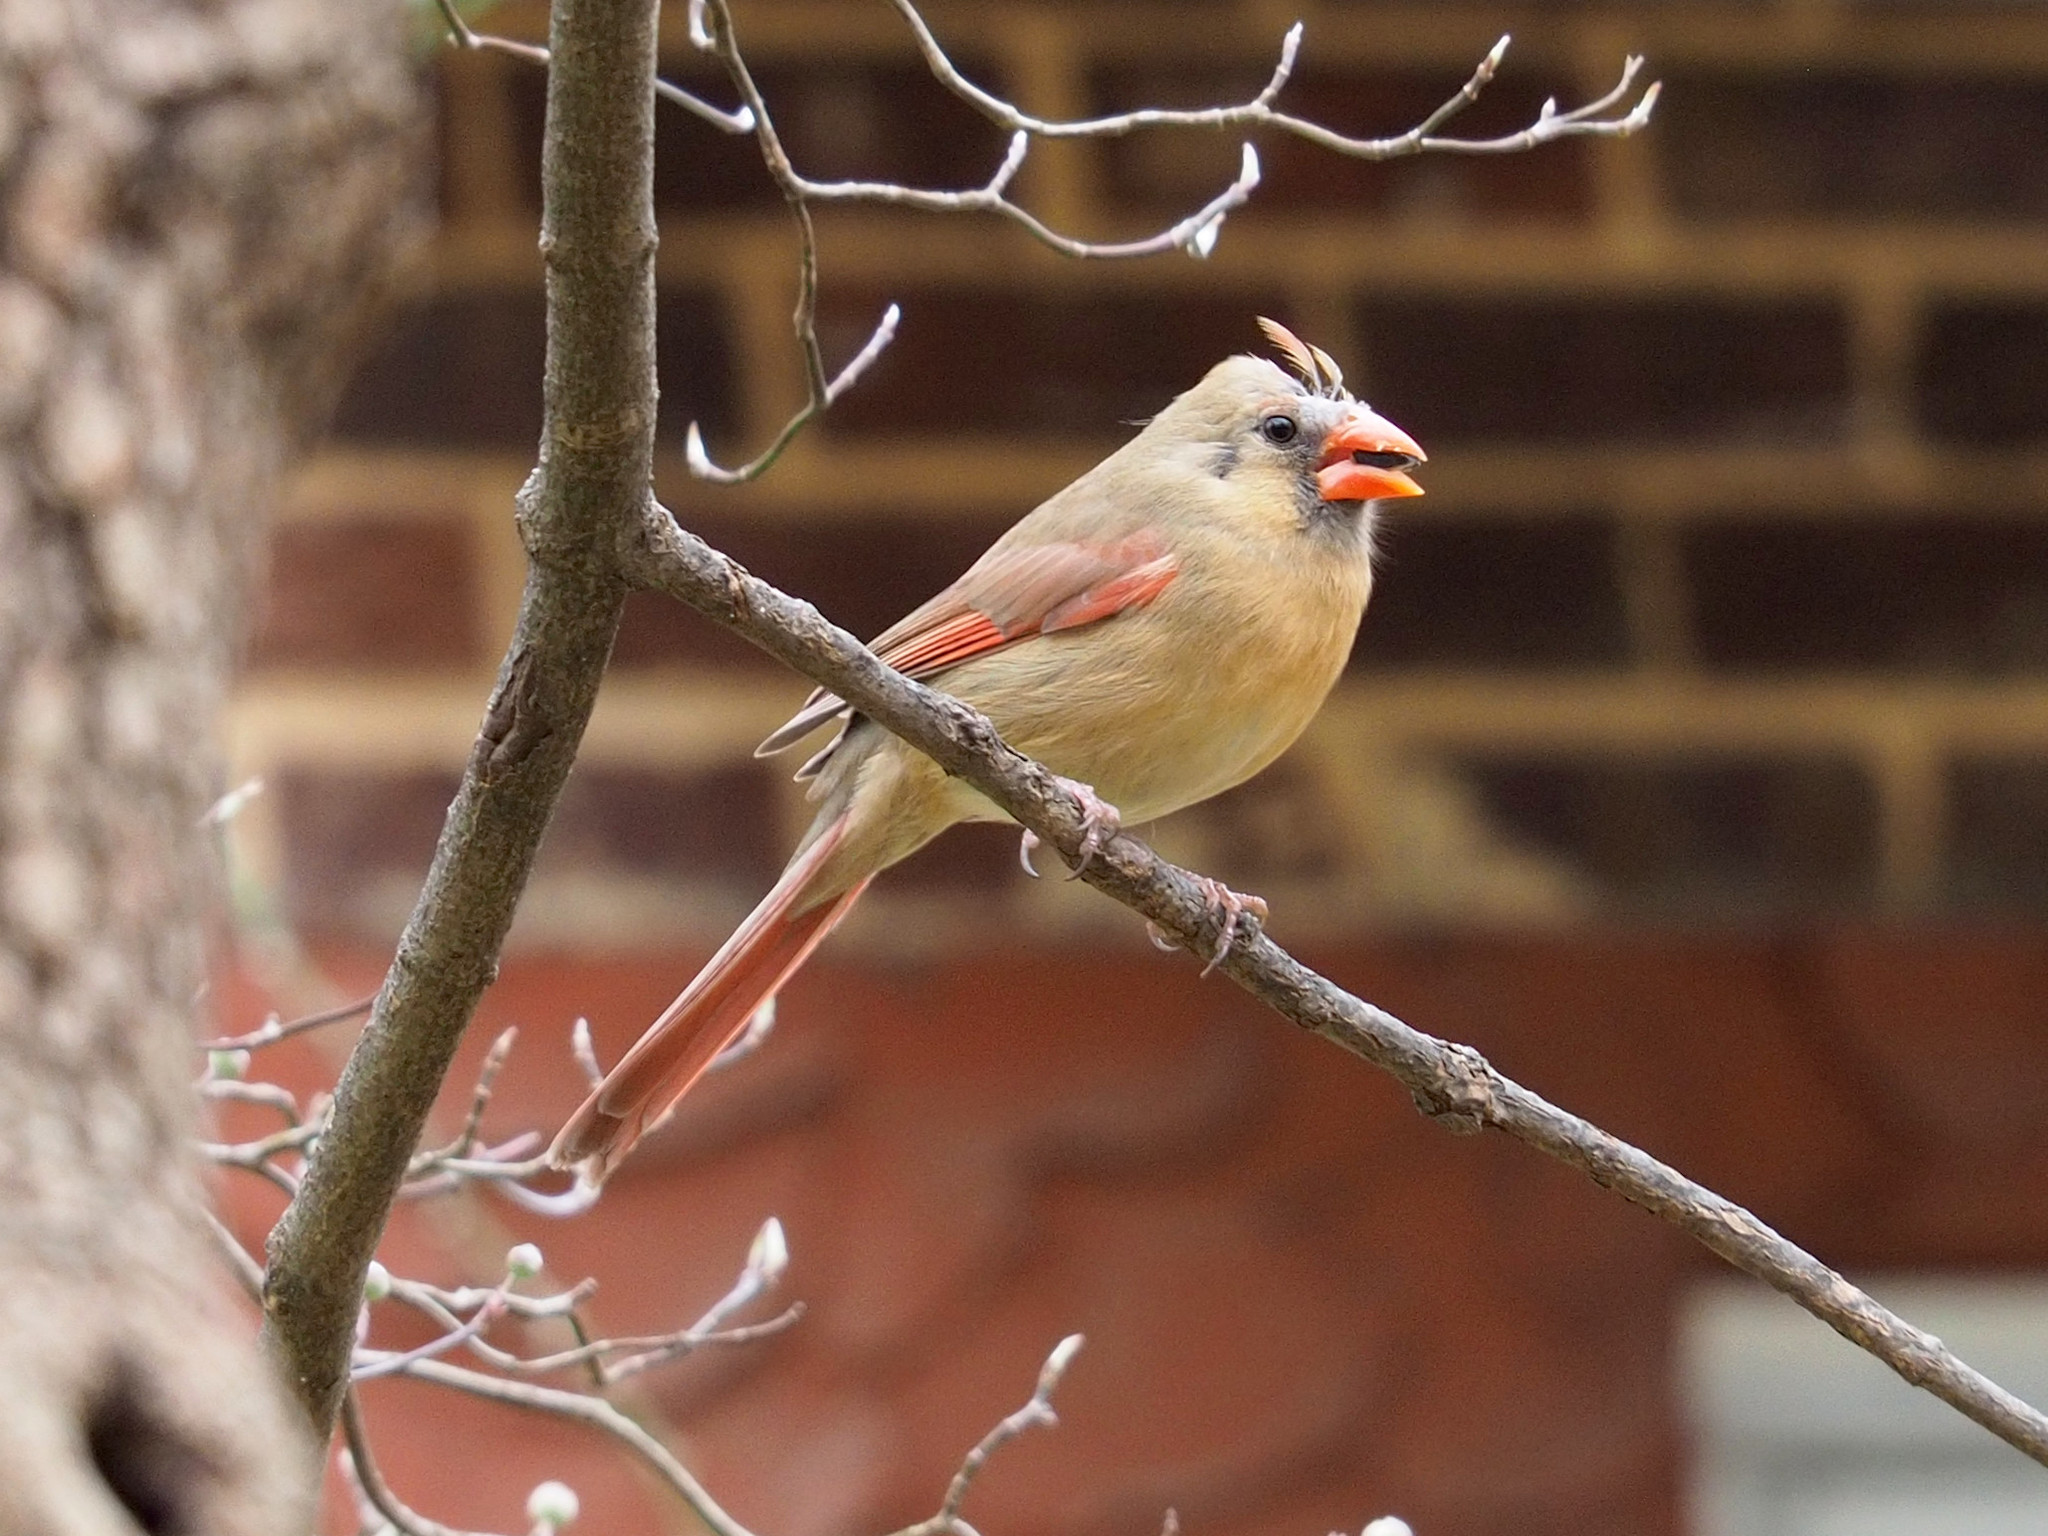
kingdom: Animalia
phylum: Chordata
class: Aves
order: Passeriformes
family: Cardinalidae
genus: Cardinalis
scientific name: Cardinalis cardinalis
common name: Northern cardinal
